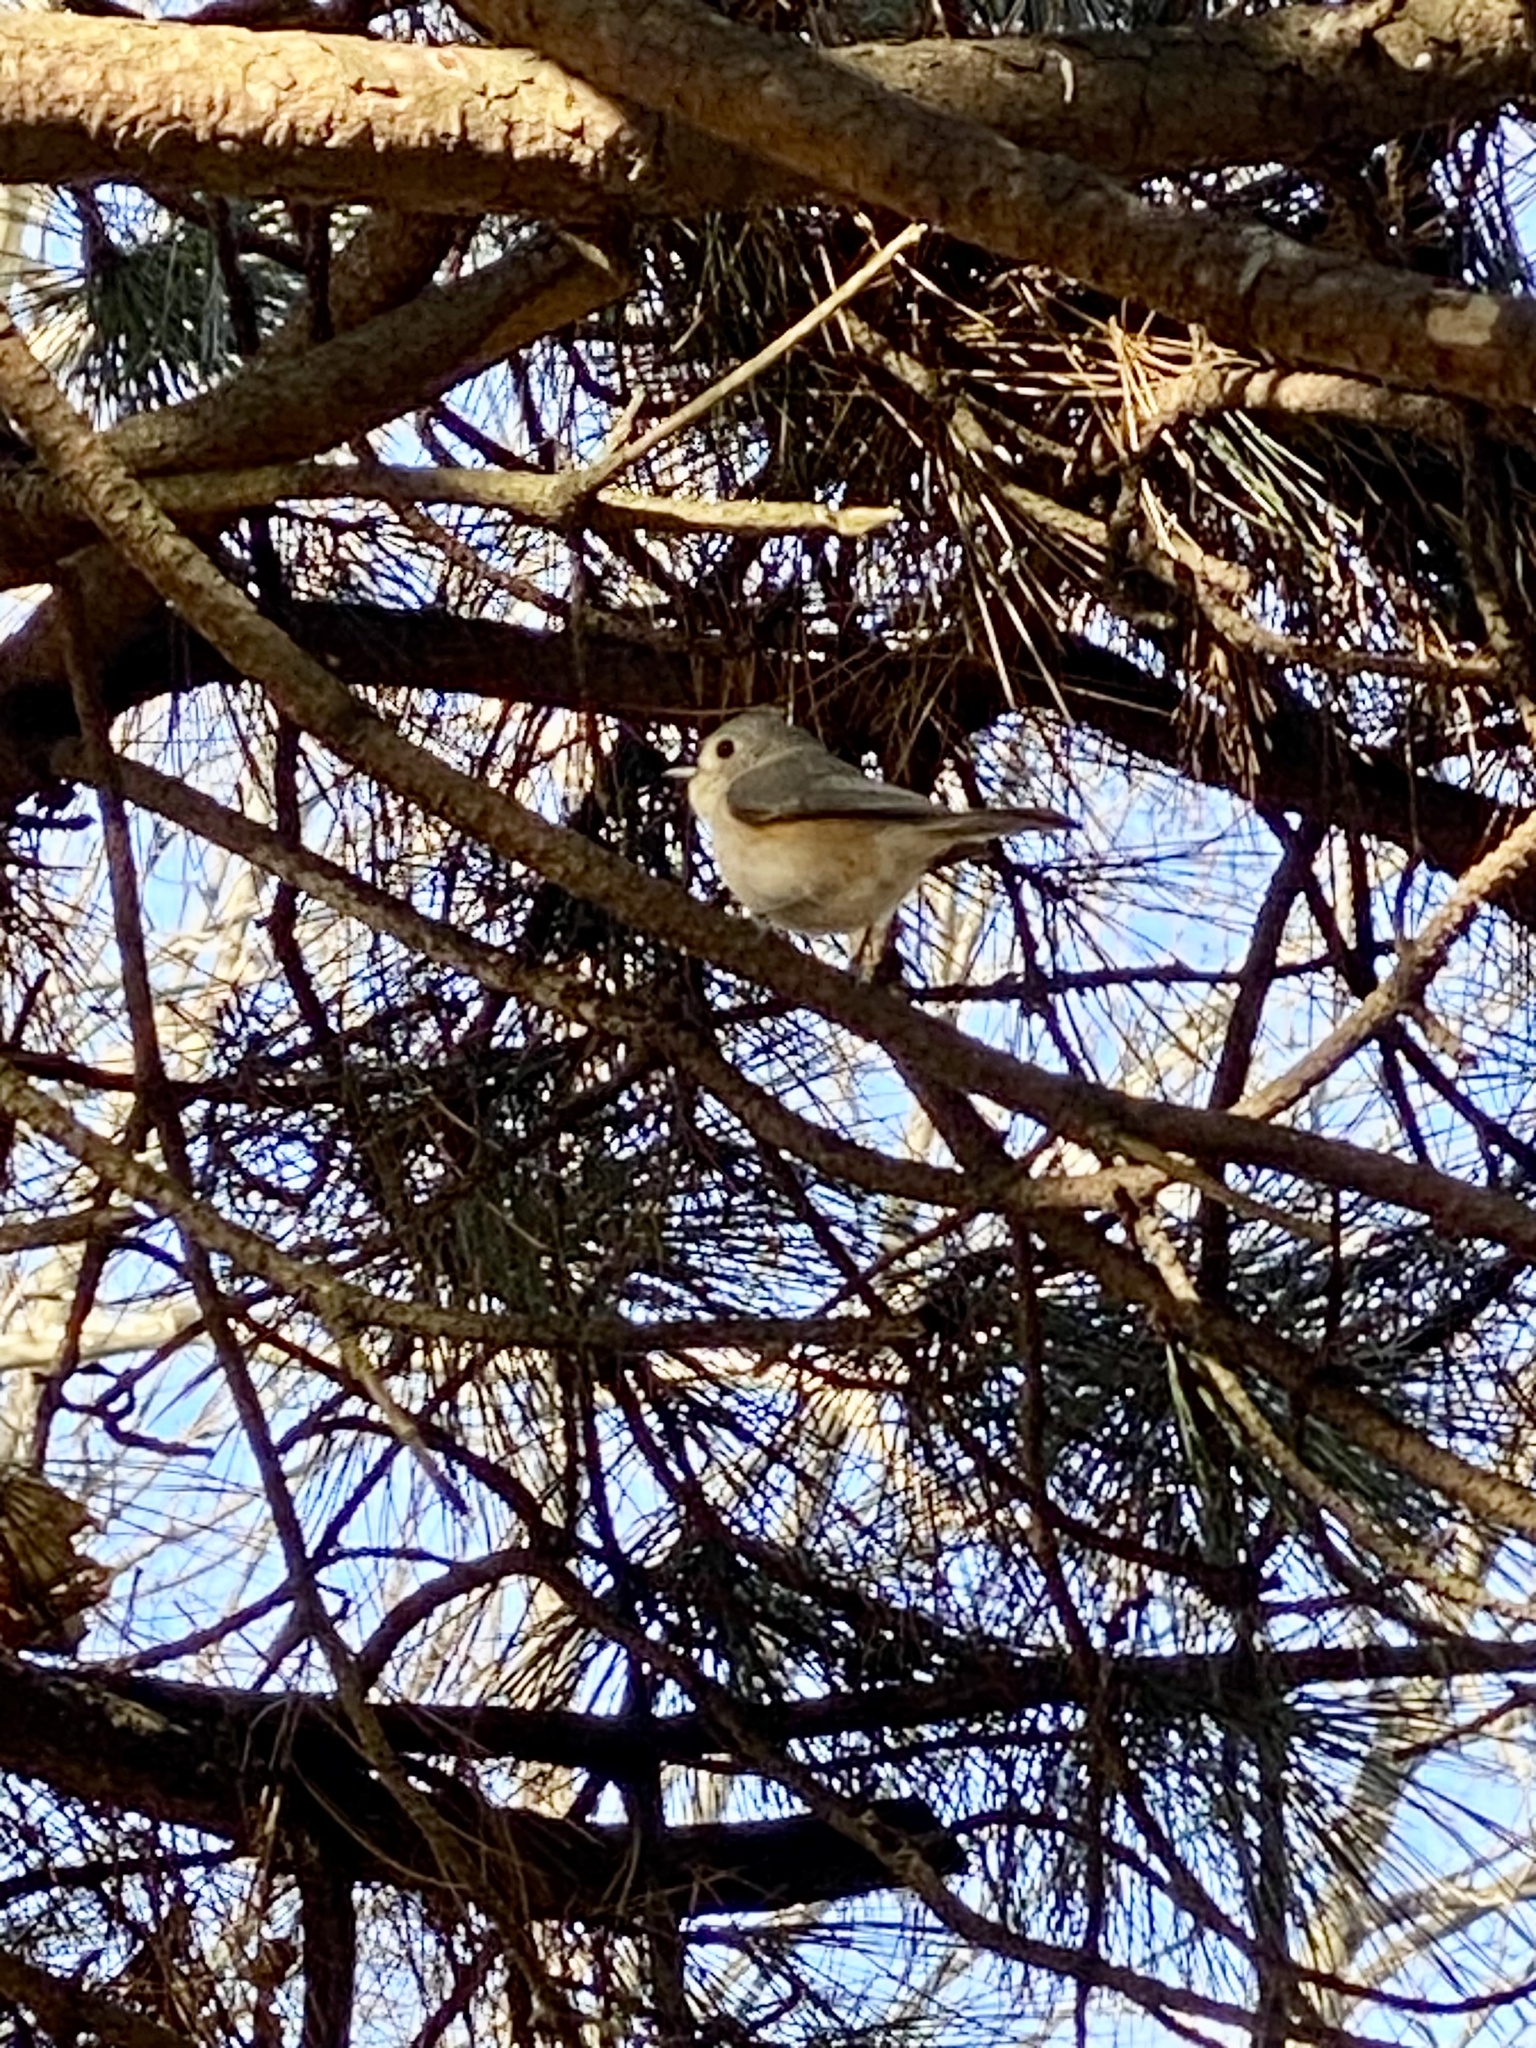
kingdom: Animalia
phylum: Chordata
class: Aves
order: Passeriformes
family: Paridae
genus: Baeolophus
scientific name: Baeolophus bicolor
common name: Tufted titmouse
